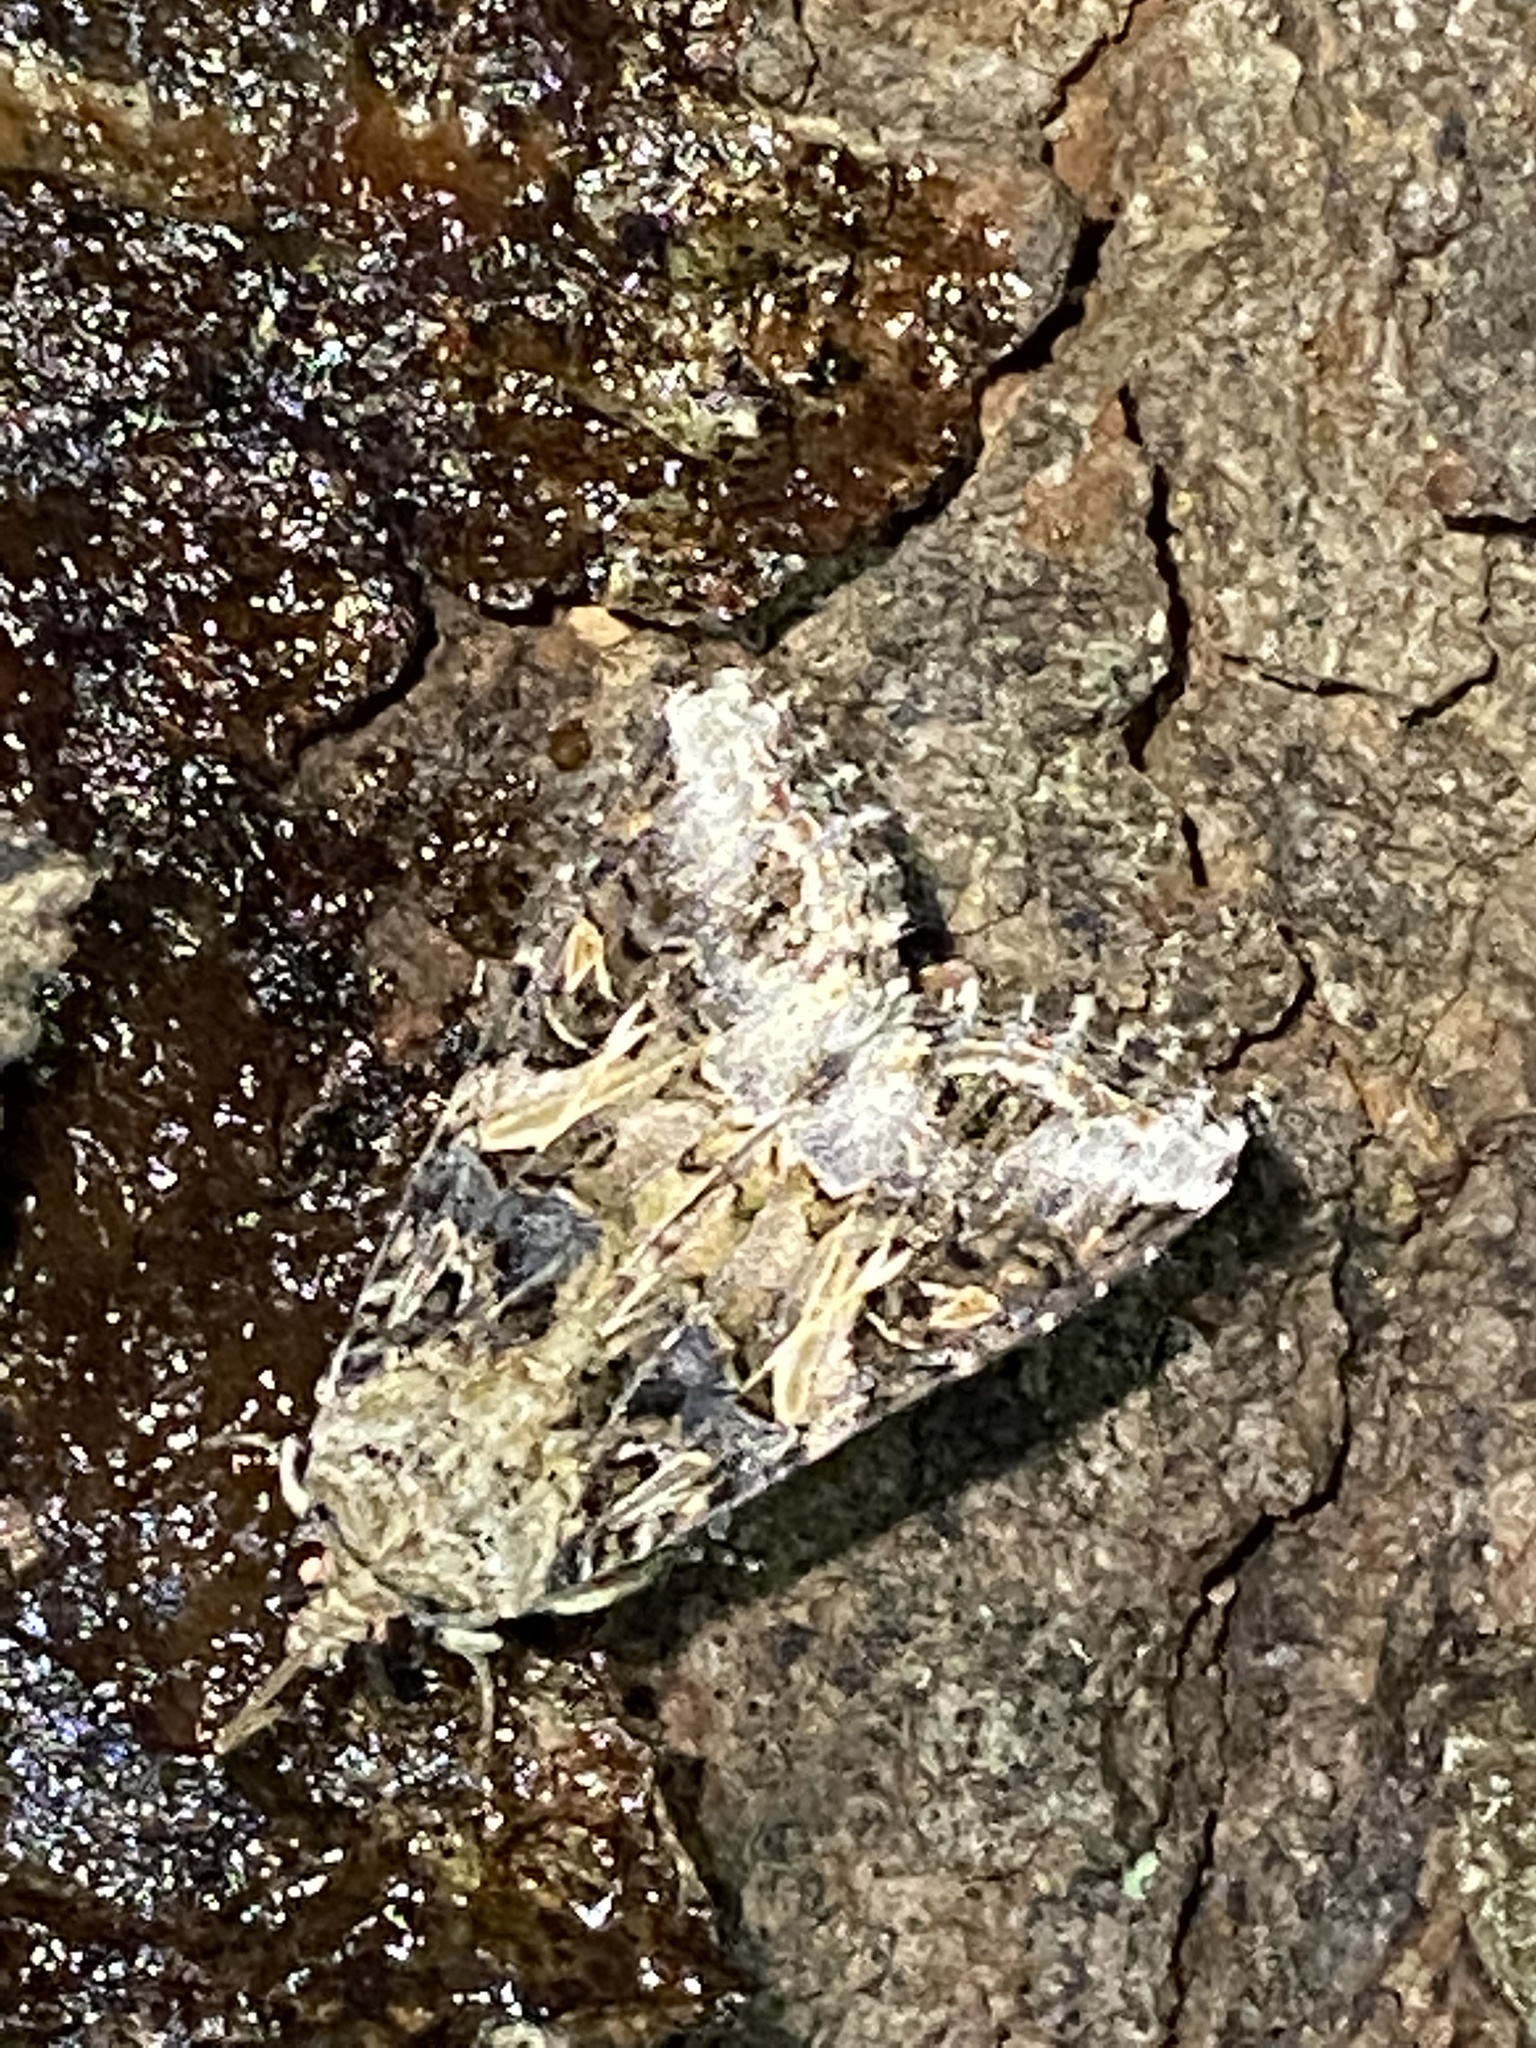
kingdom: Animalia
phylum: Arthropoda
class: Insecta
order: Lepidoptera
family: Noctuidae
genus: Spodoptera
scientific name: Spodoptera ornithogalli
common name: Yellow-striped armyworm
